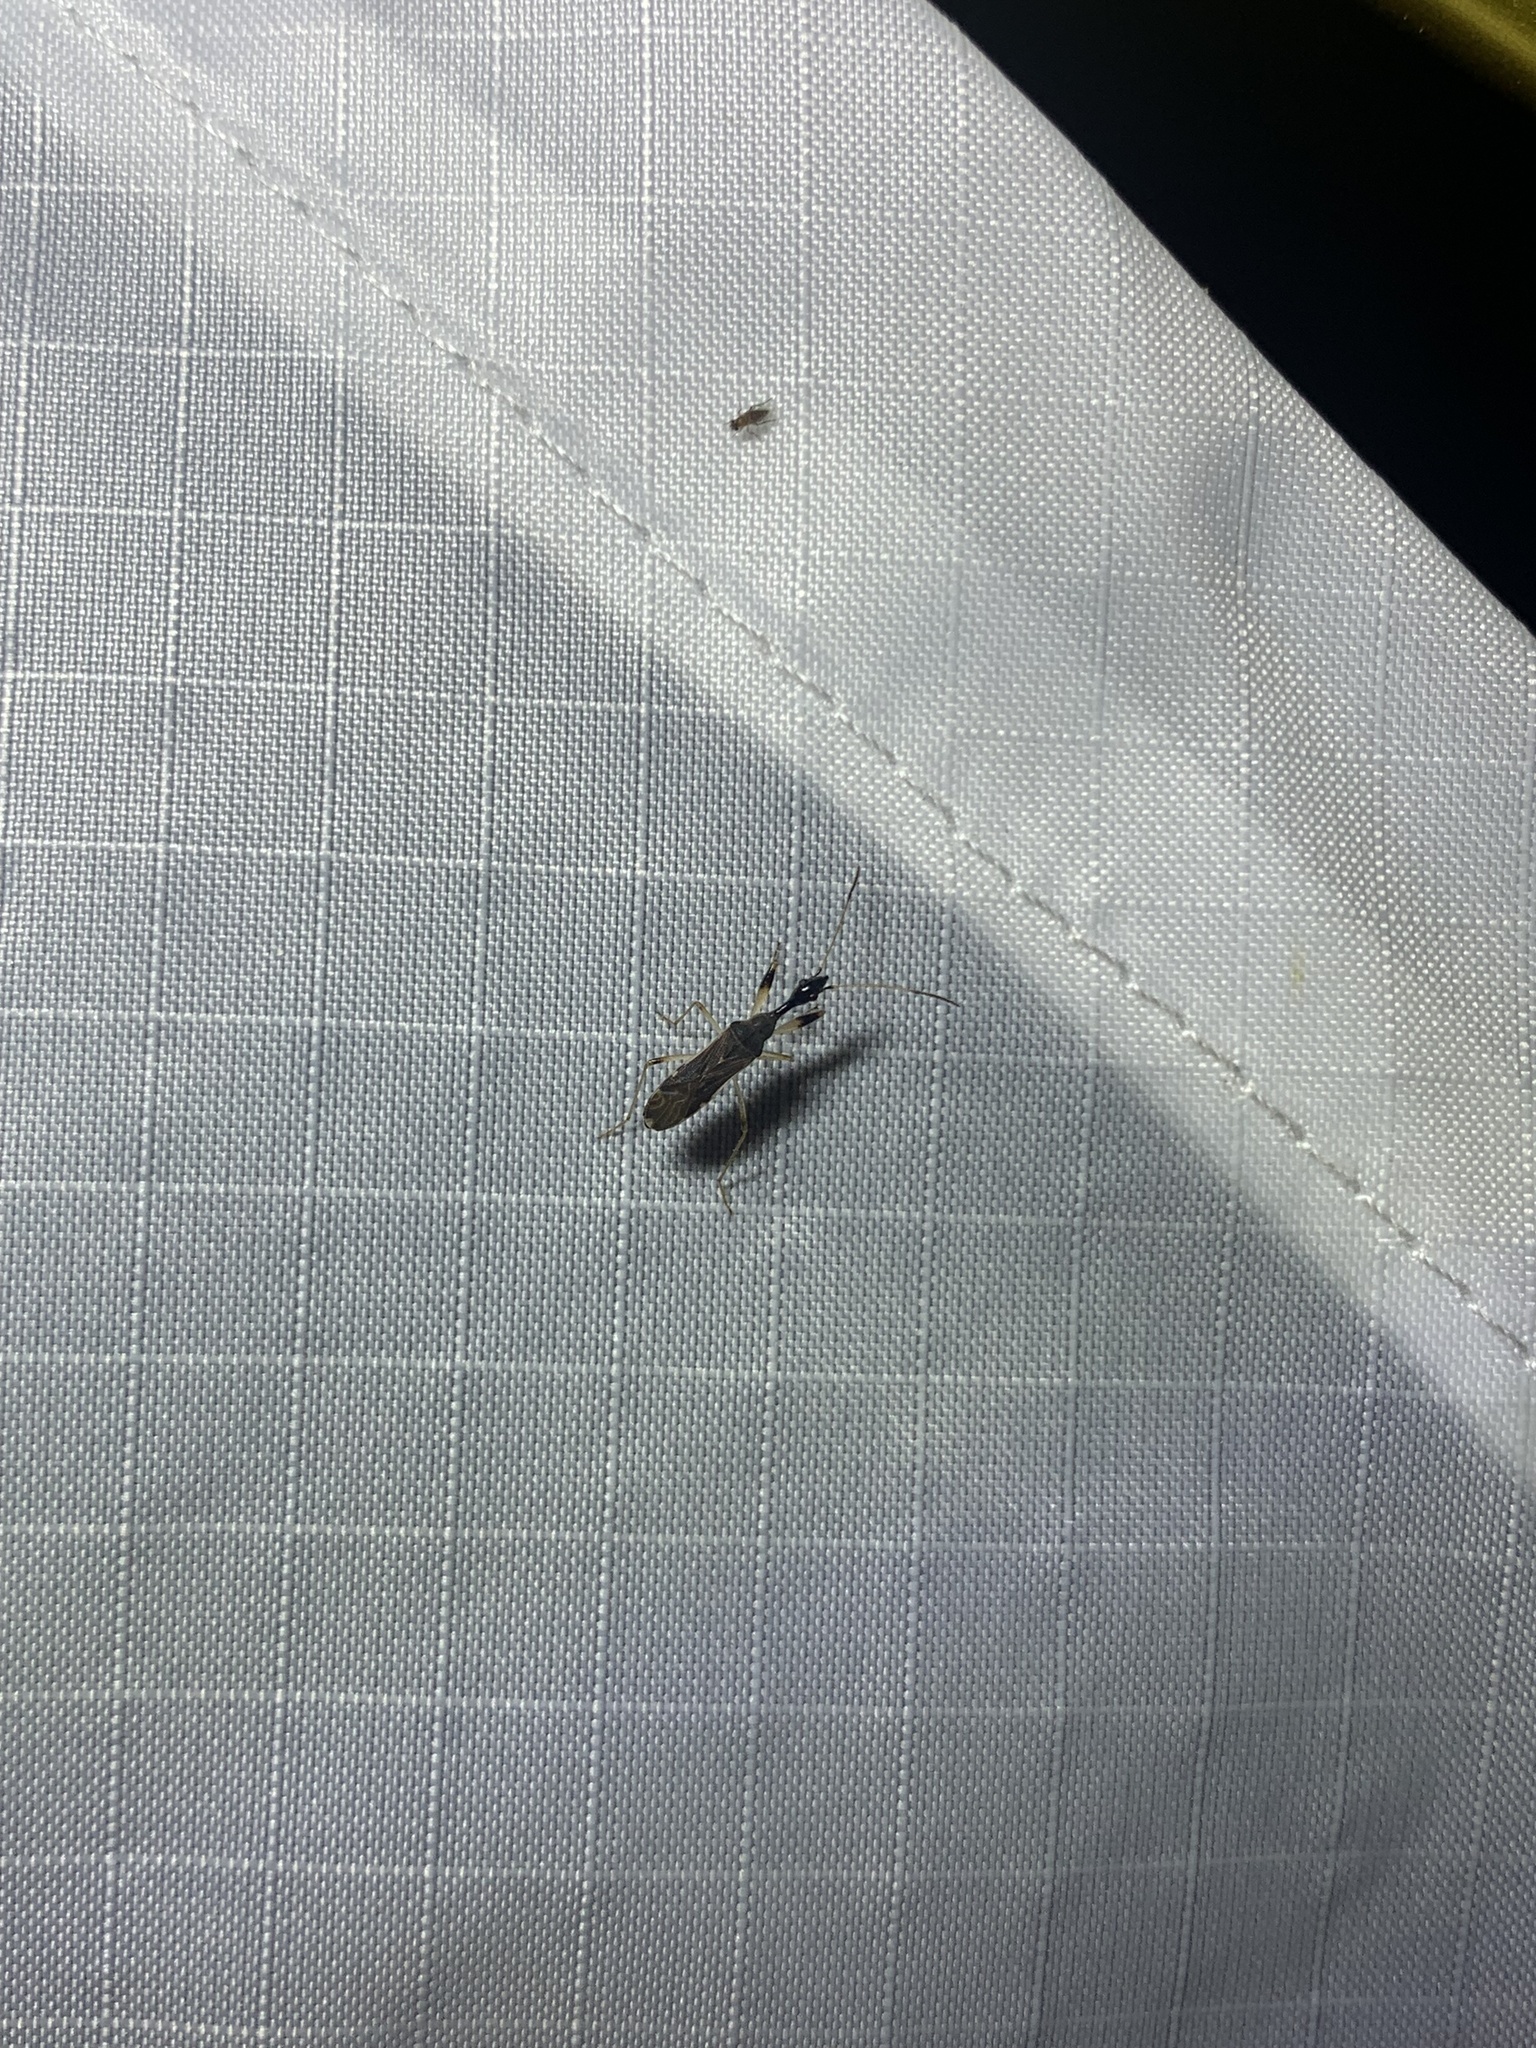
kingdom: Animalia
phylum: Arthropoda
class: Insecta
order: Hemiptera
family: Rhyparochromidae
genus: Myodocha
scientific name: Myodocha serripes
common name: Long-necked seed bug
